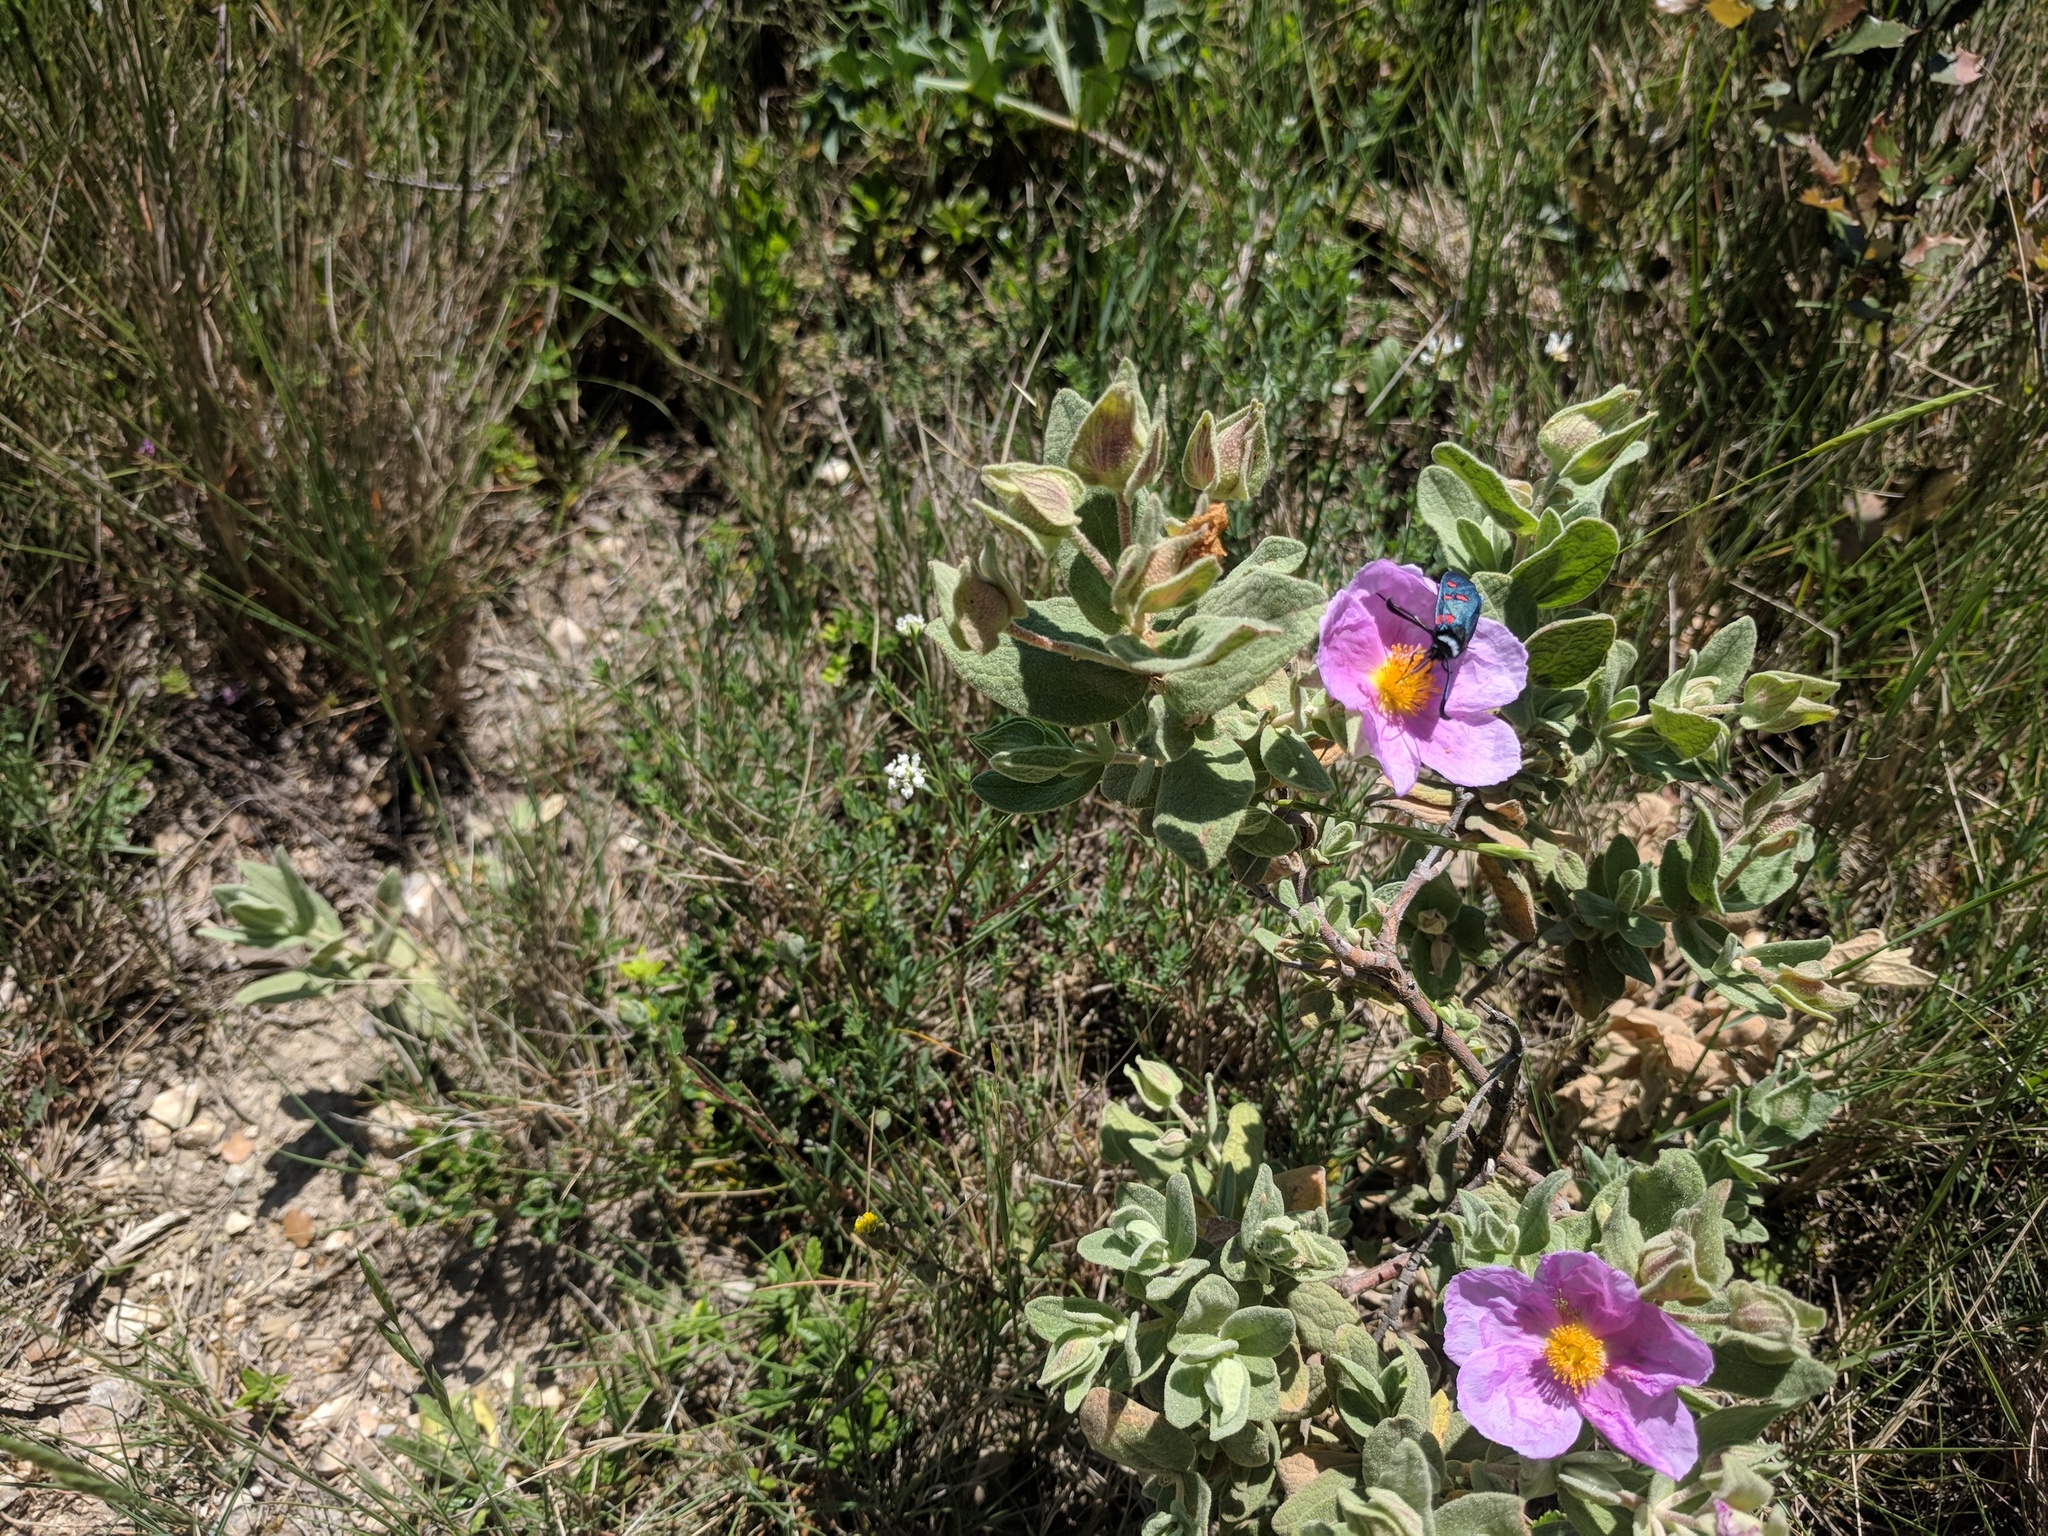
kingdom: Animalia
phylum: Arthropoda
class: Insecta
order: Lepidoptera
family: Zygaenidae
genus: Zygaena
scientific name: Zygaena lavandulae
